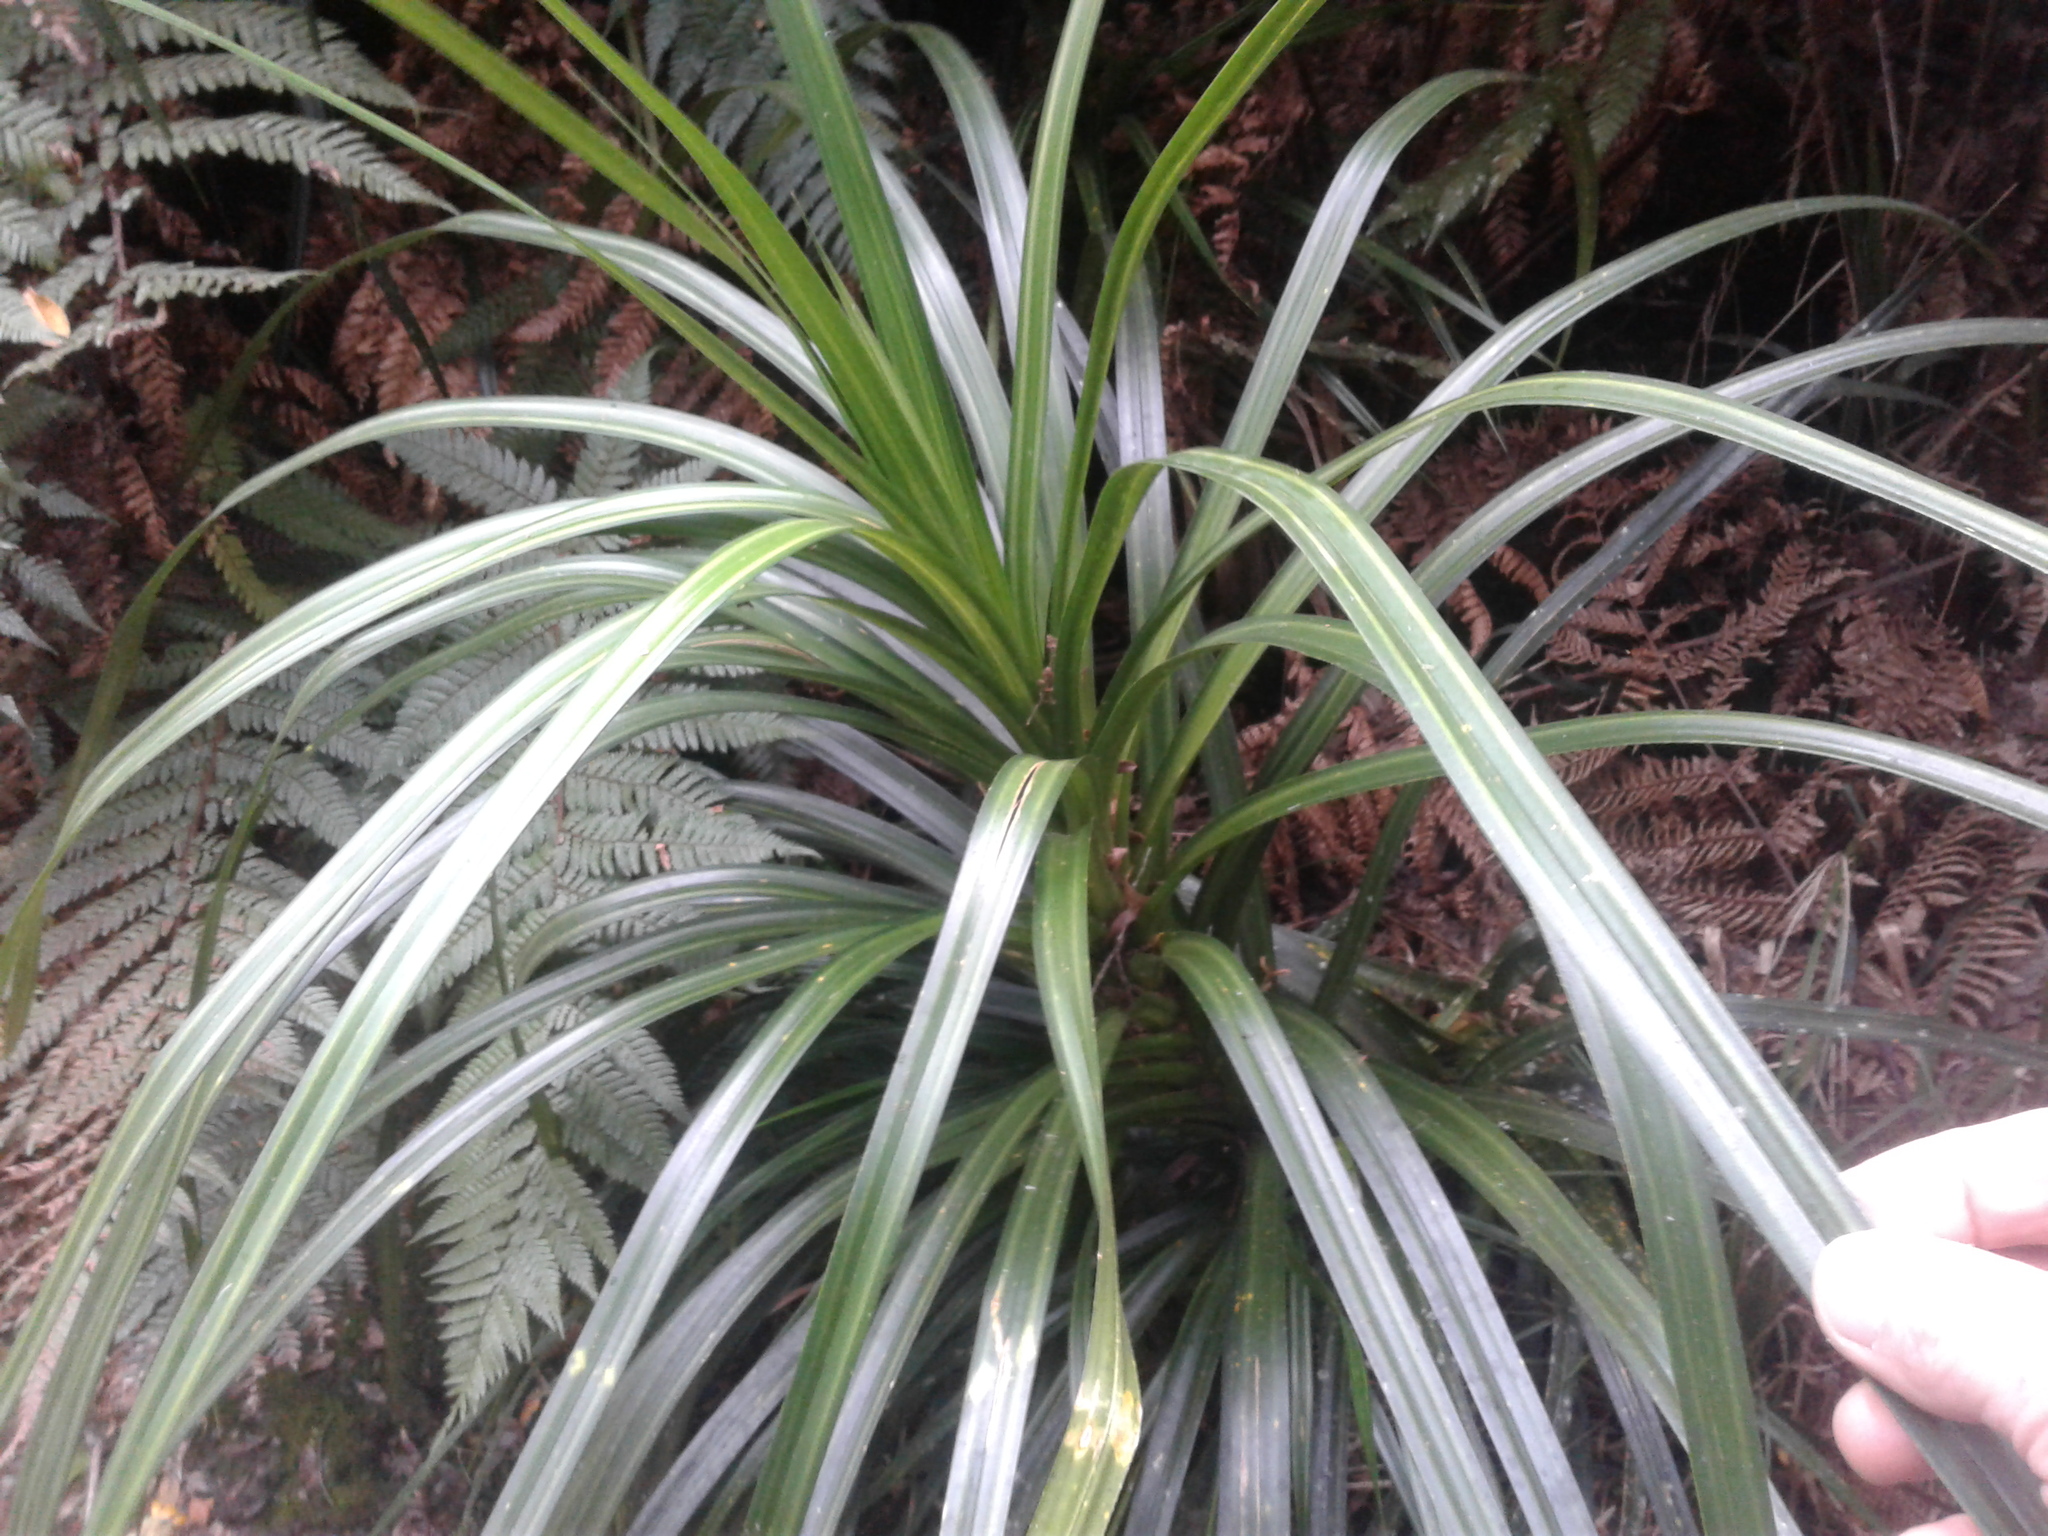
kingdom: Plantae
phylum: Tracheophyta
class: Liliopsida
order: Pandanales
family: Pandanaceae
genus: Freycinetia
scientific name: Freycinetia banksii
